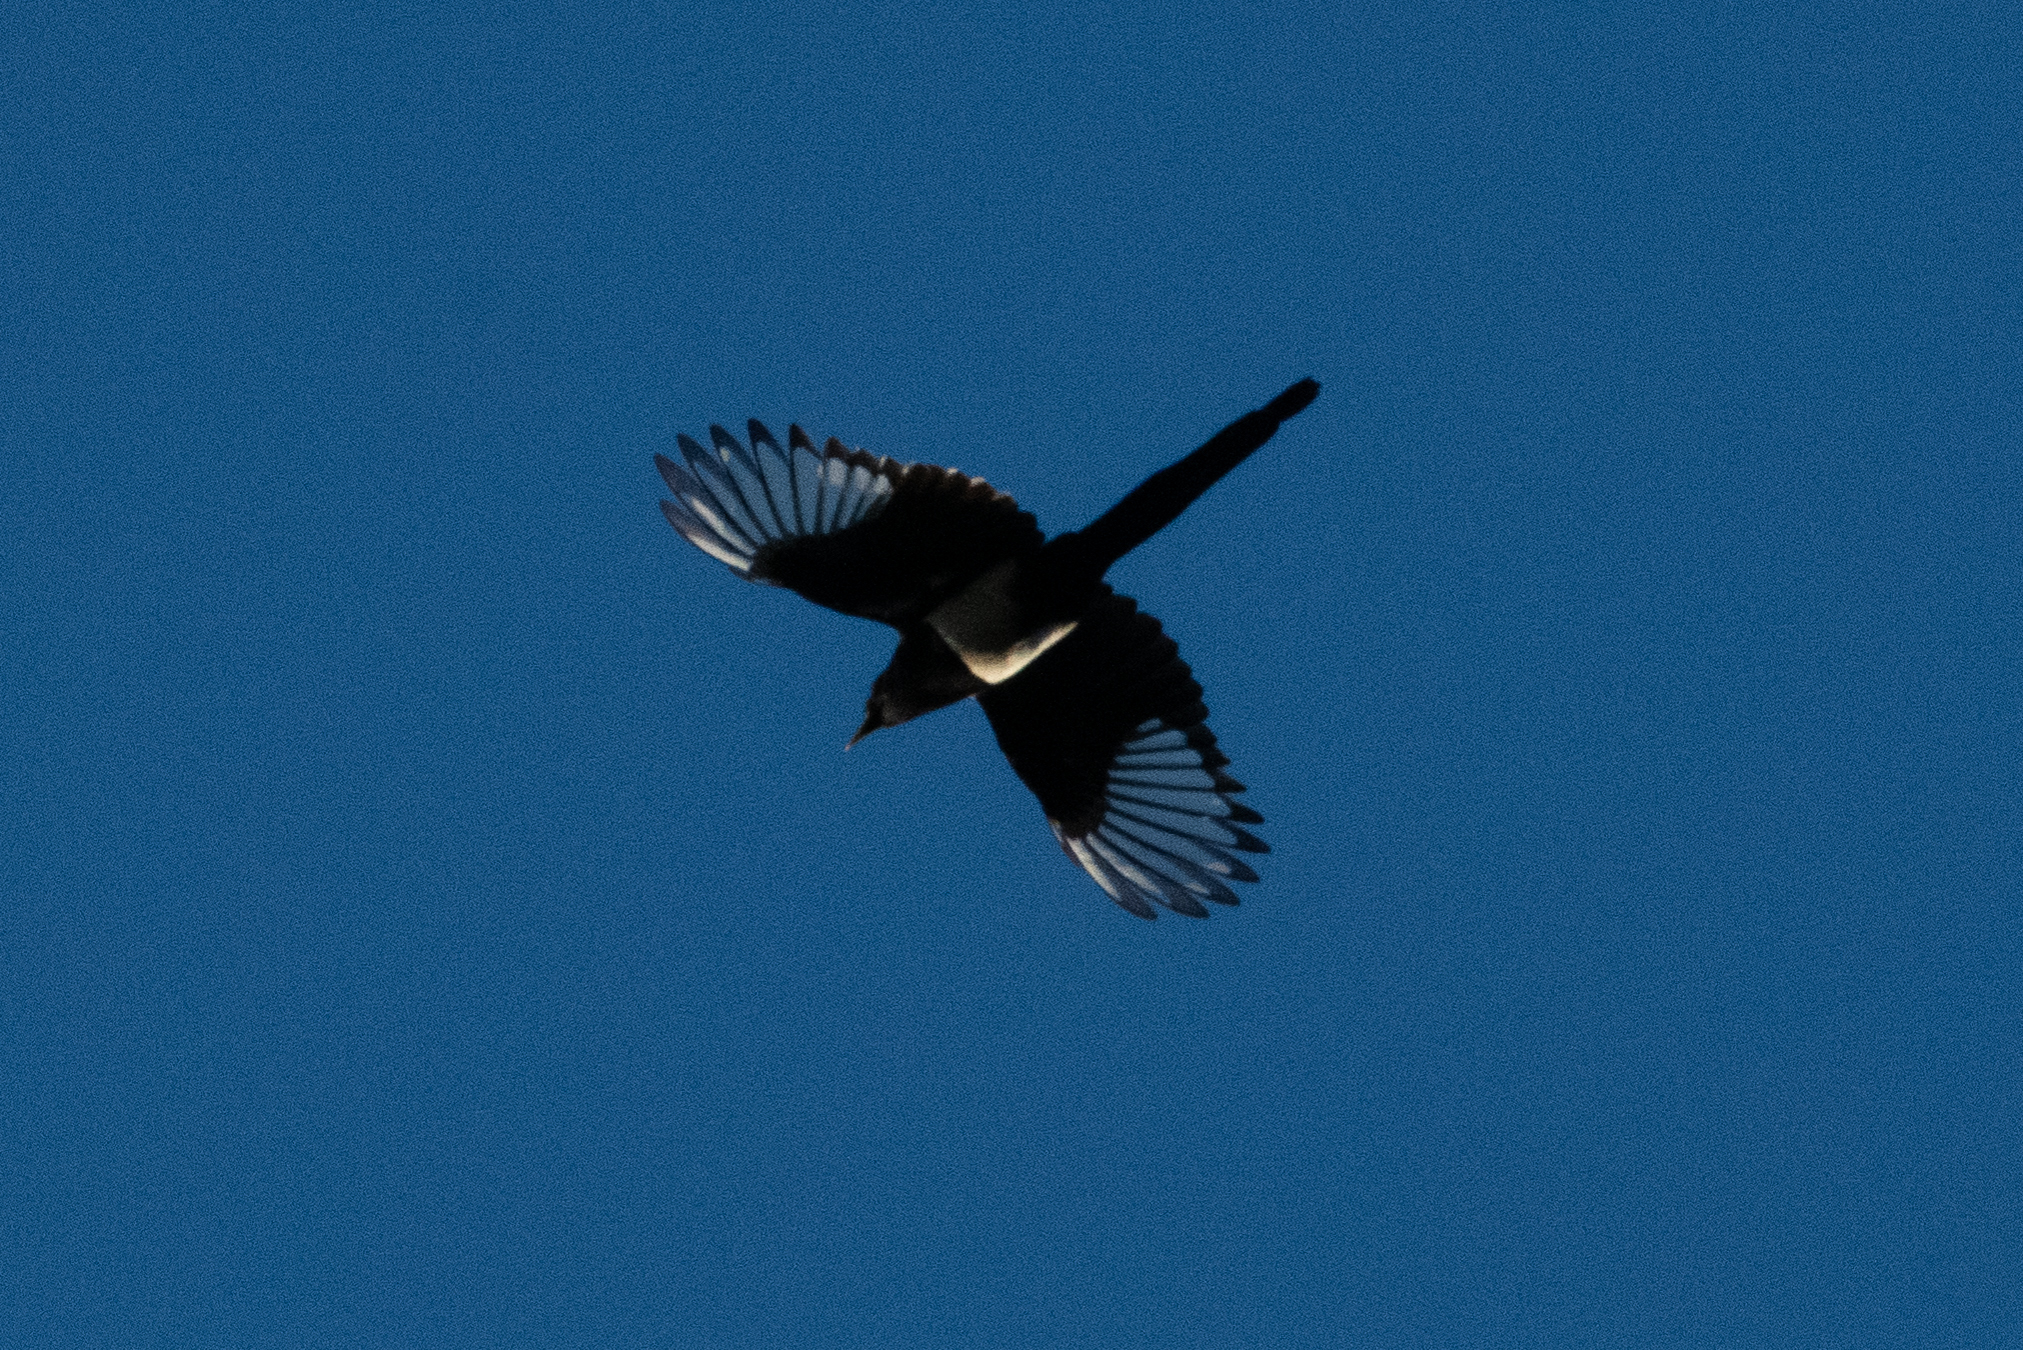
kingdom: Animalia
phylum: Chordata
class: Aves
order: Passeriformes
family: Corvidae
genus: Pica
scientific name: Pica nuttalli
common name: Yellow-billed magpie
